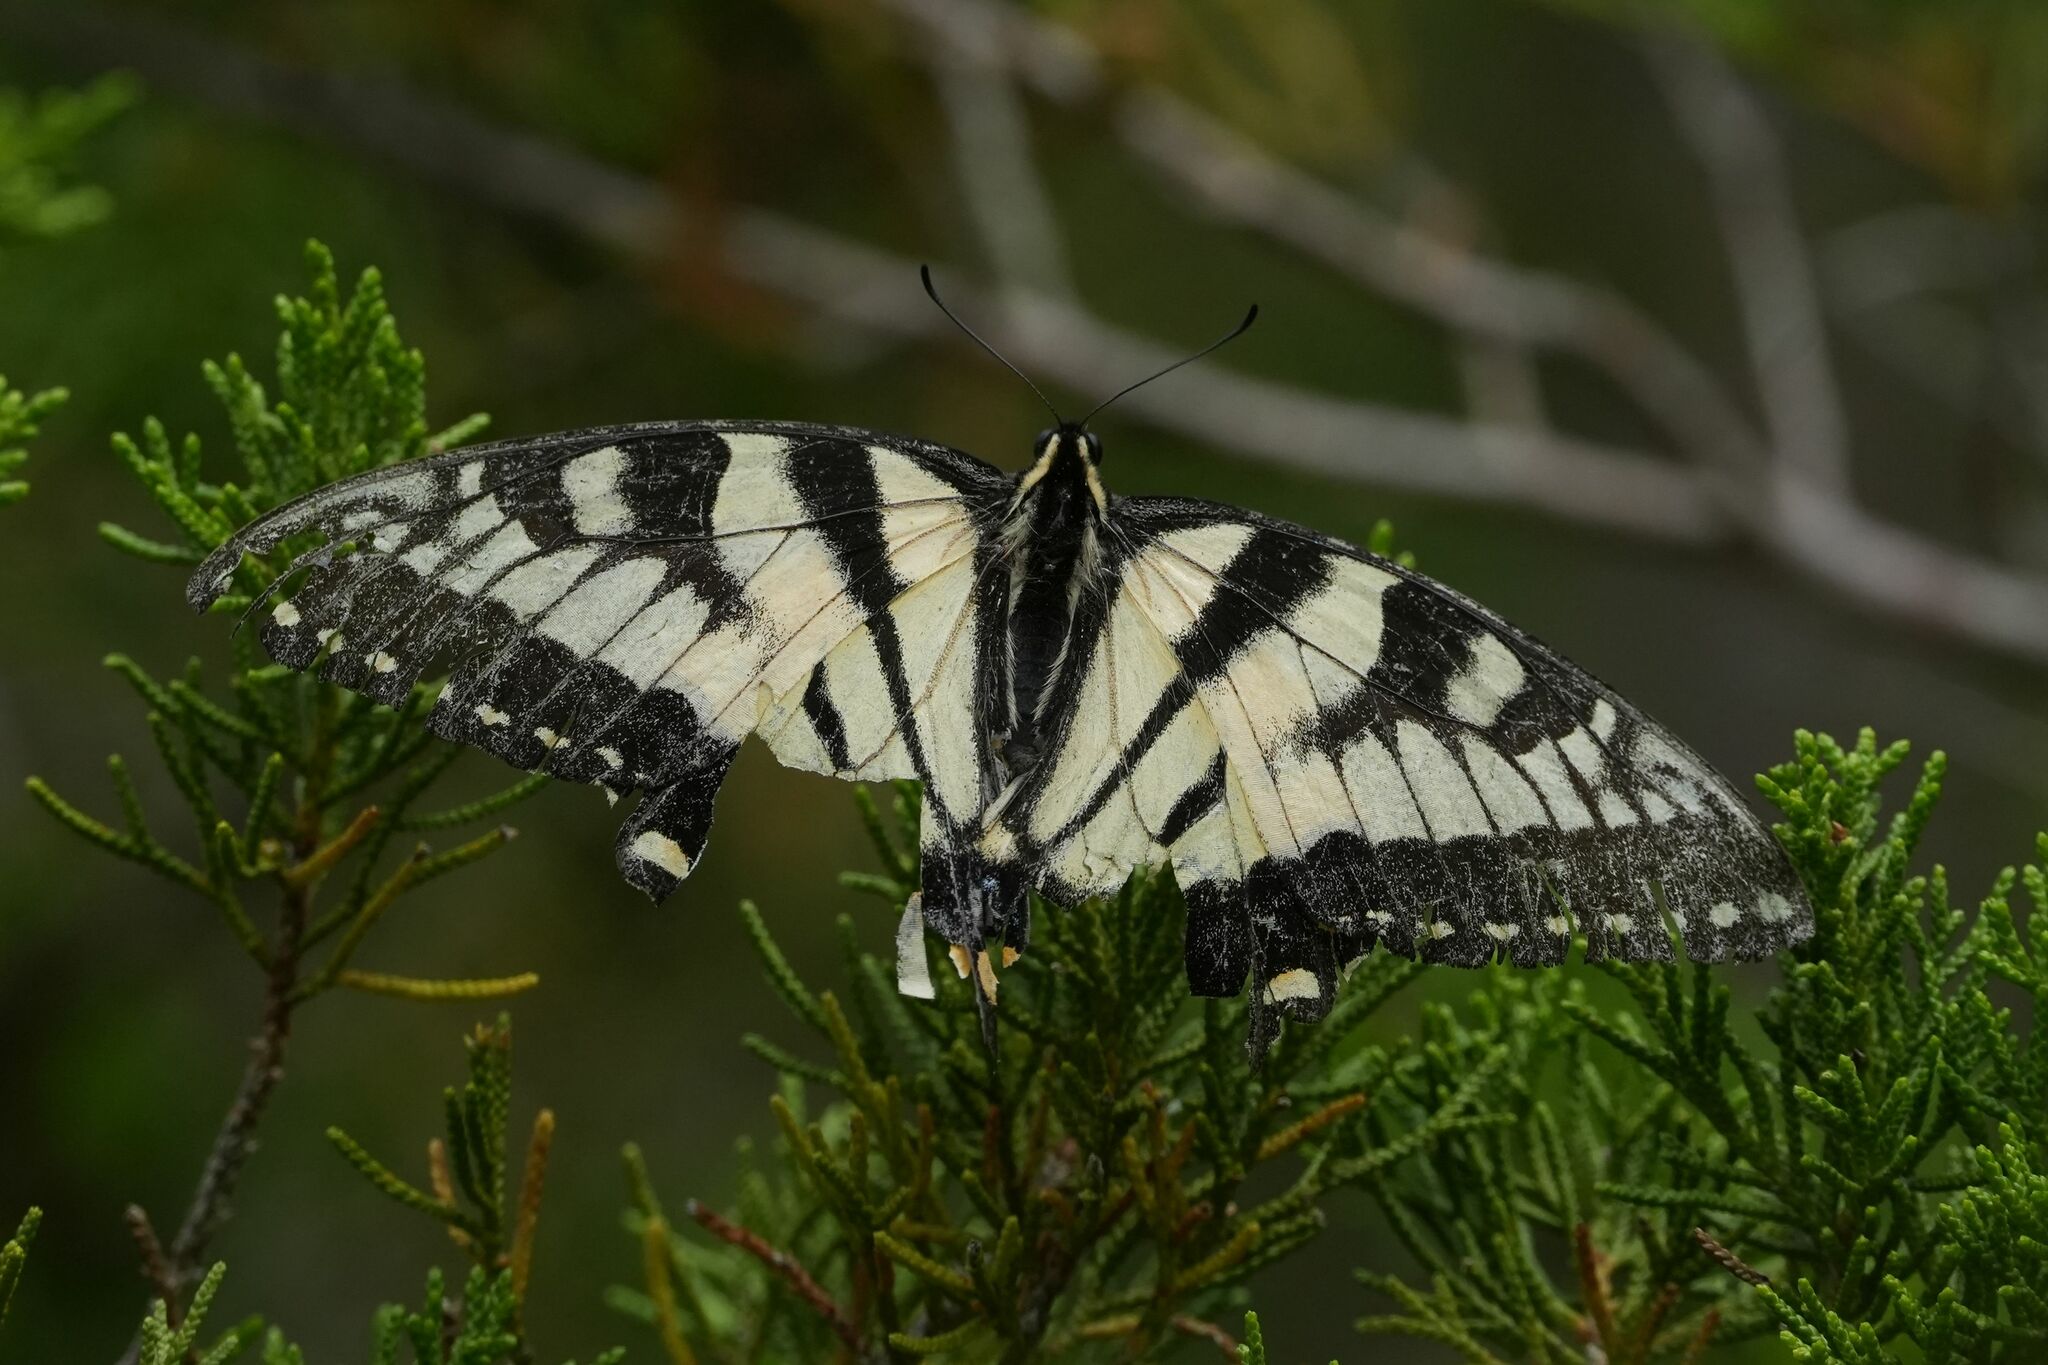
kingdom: Animalia
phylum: Arthropoda
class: Insecta
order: Lepidoptera
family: Papilionidae
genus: Papilio
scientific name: Papilio
